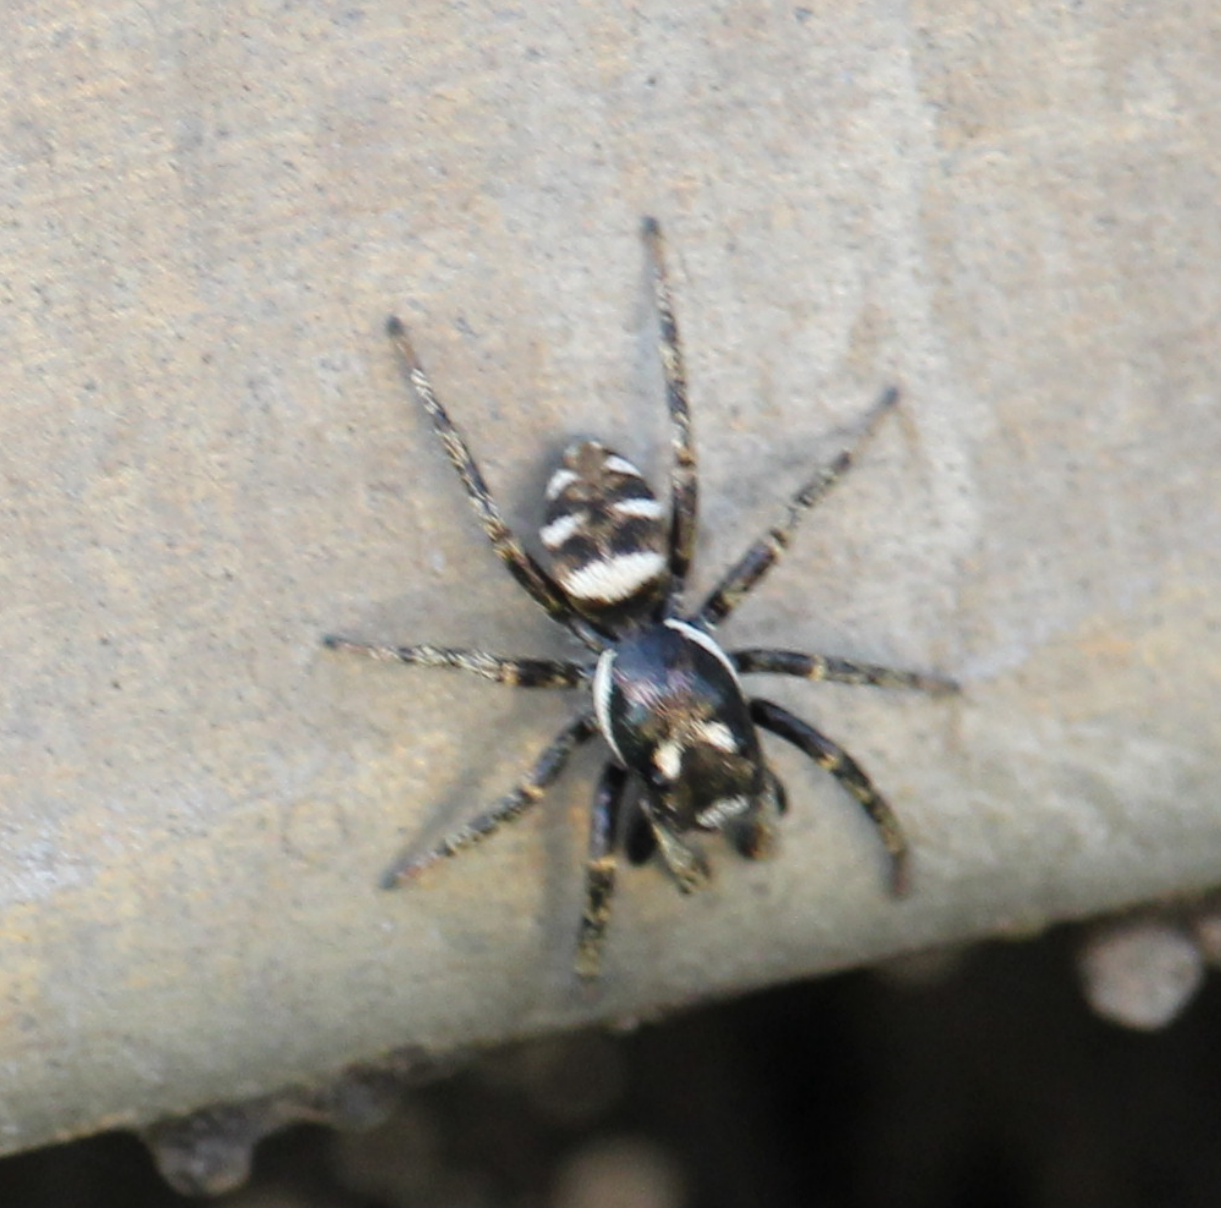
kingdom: Animalia
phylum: Arthropoda
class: Arachnida
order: Araneae
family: Salticidae
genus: Salticus
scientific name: Salticus scenicus
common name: Zebra jumper
